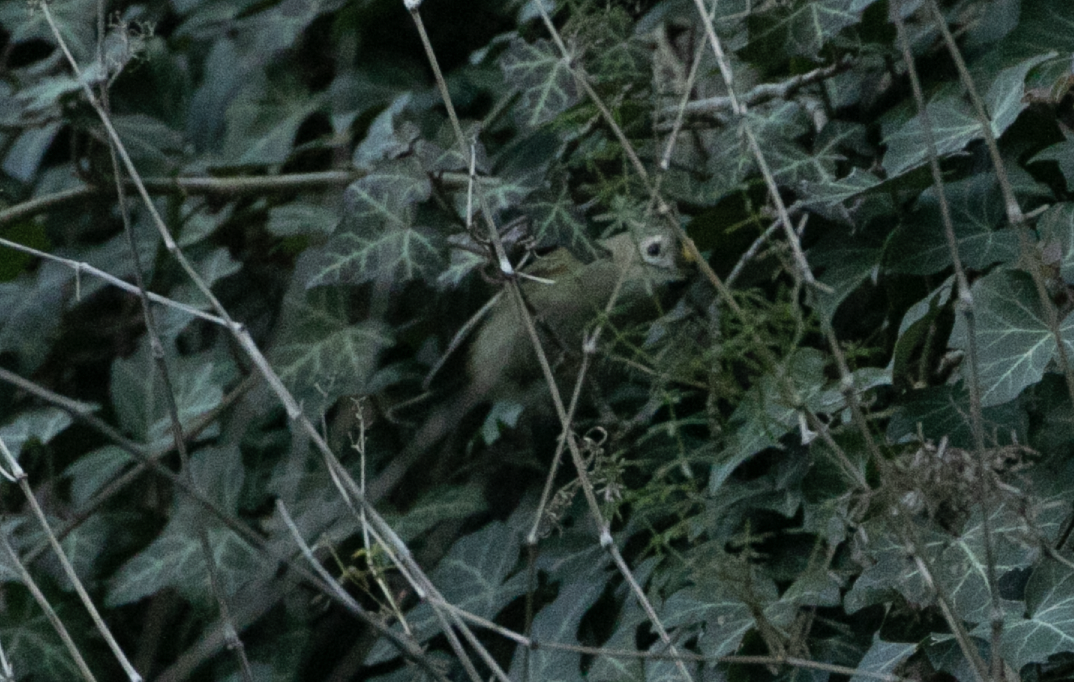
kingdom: Animalia
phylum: Chordata
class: Aves
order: Passeriformes
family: Regulidae
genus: Regulus
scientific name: Regulus regulus
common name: Goldcrest
